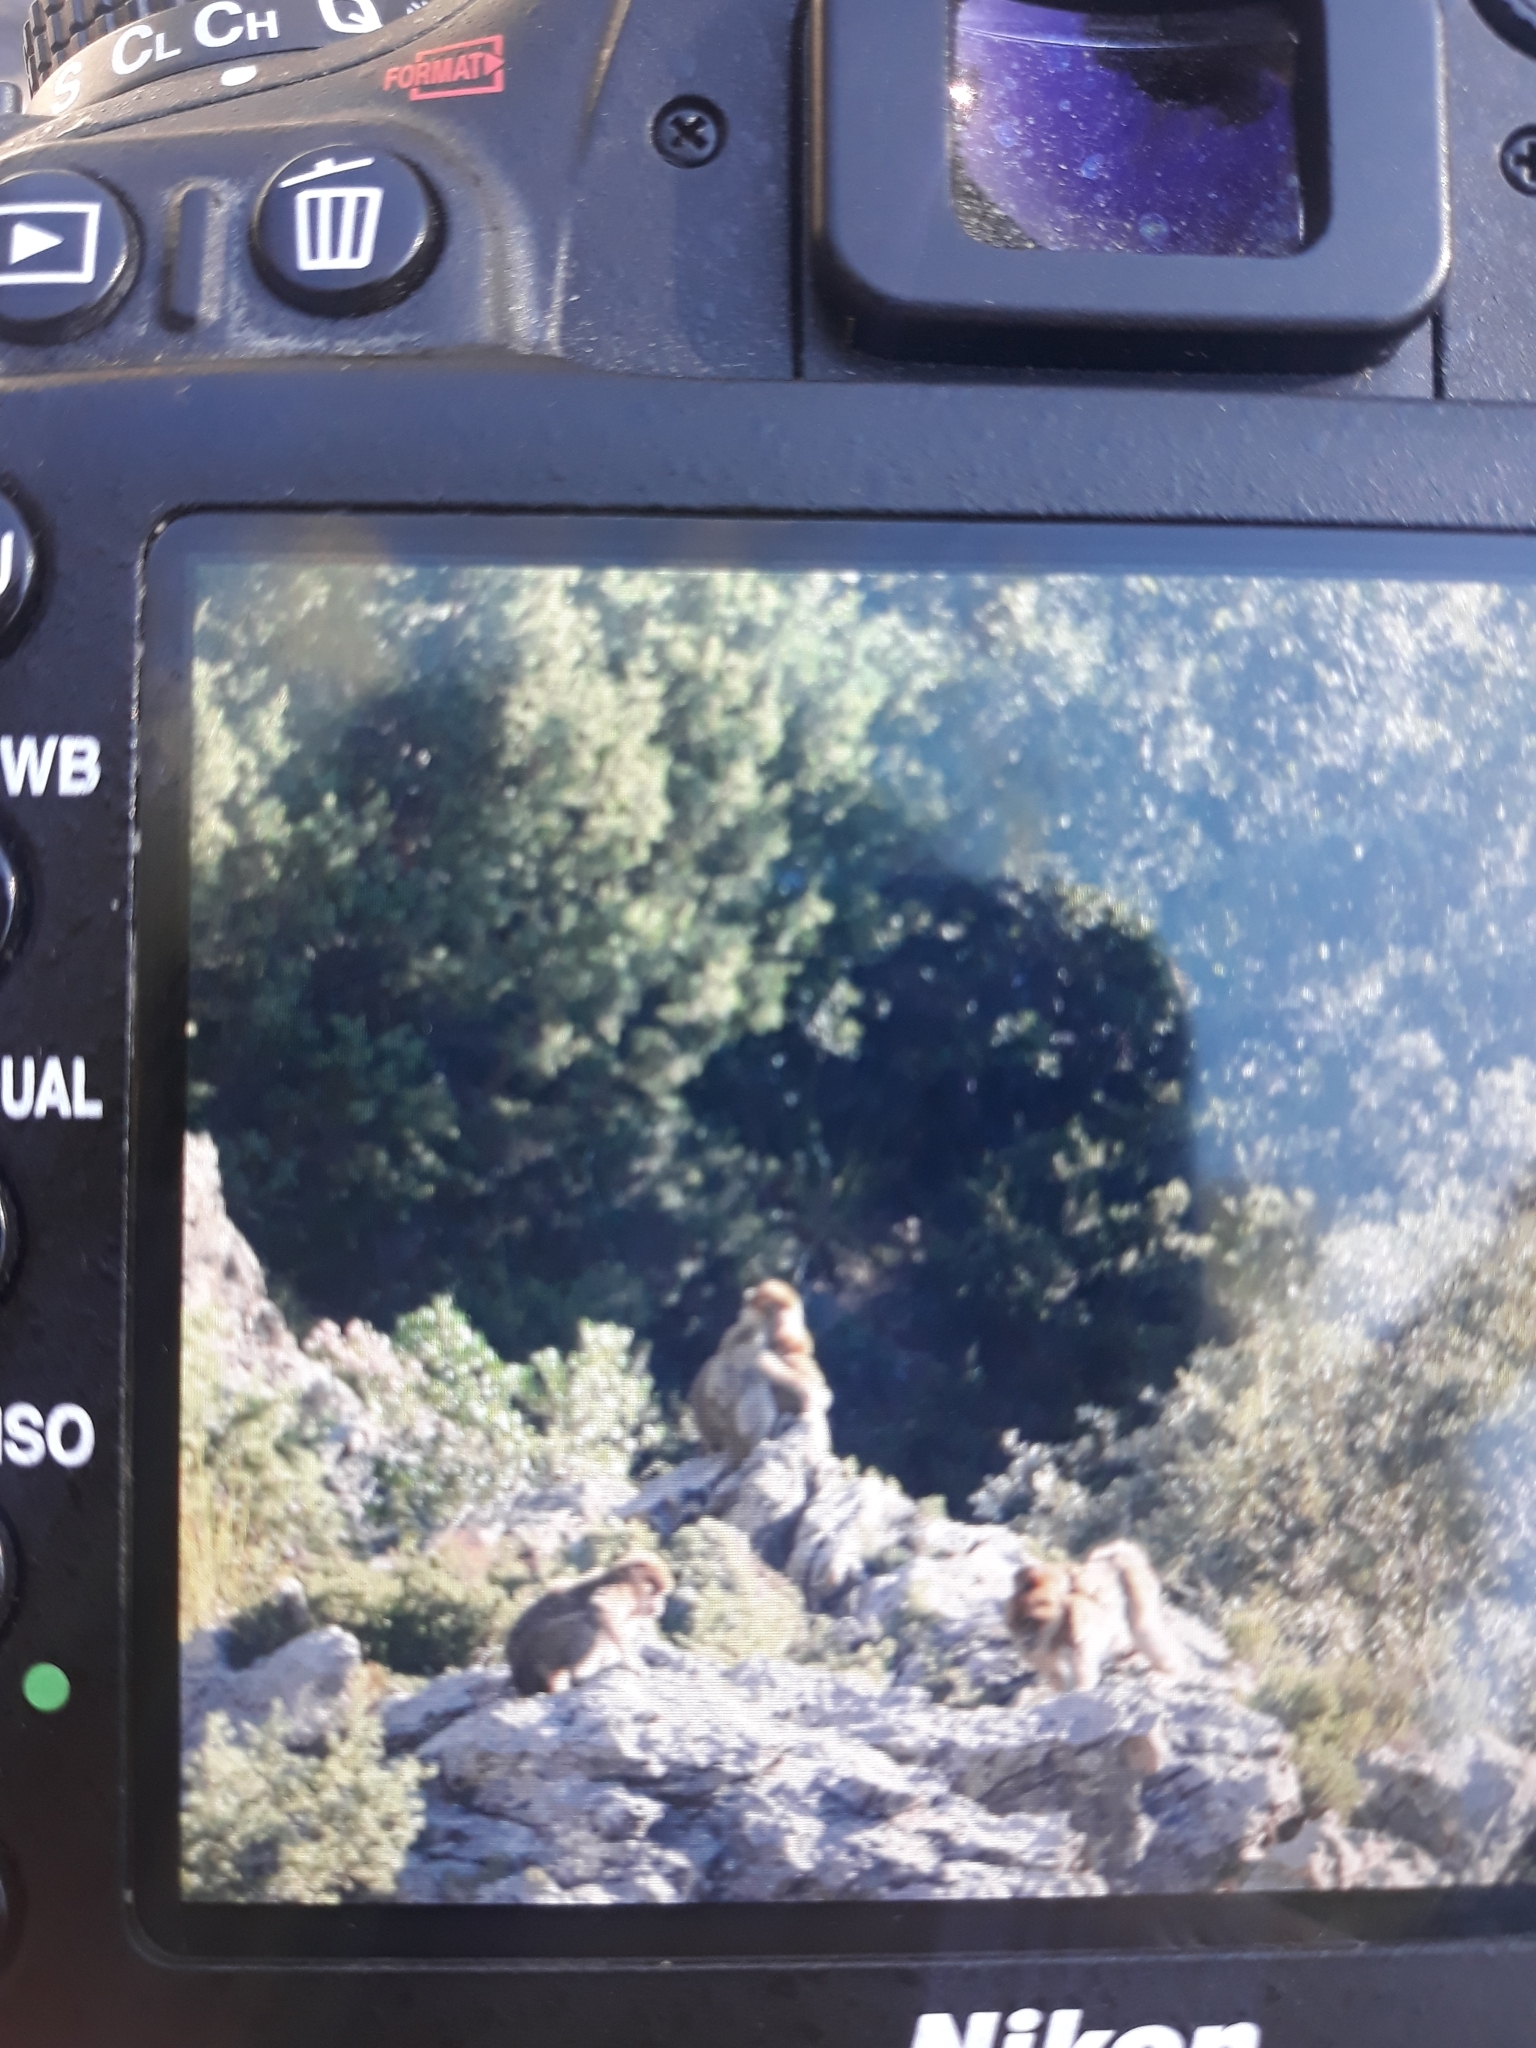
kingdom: Animalia
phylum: Chordata
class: Mammalia
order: Primates
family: Cercopithecidae
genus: Macaca
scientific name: Macaca sylvanus
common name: Barbary macaque
